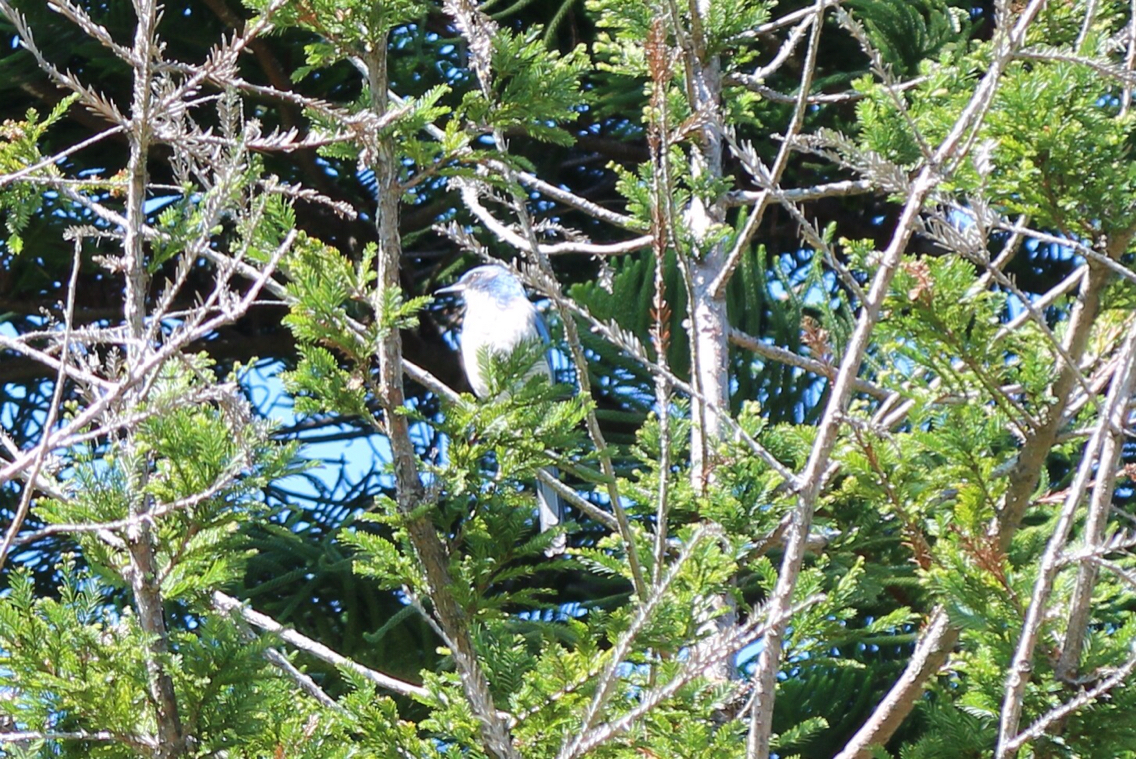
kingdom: Animalia
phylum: Chordata
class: Aves
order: Passeriformes
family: Corvidae
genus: Aphelocoma
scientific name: Aphelocoma californica
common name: California scrub-jay
